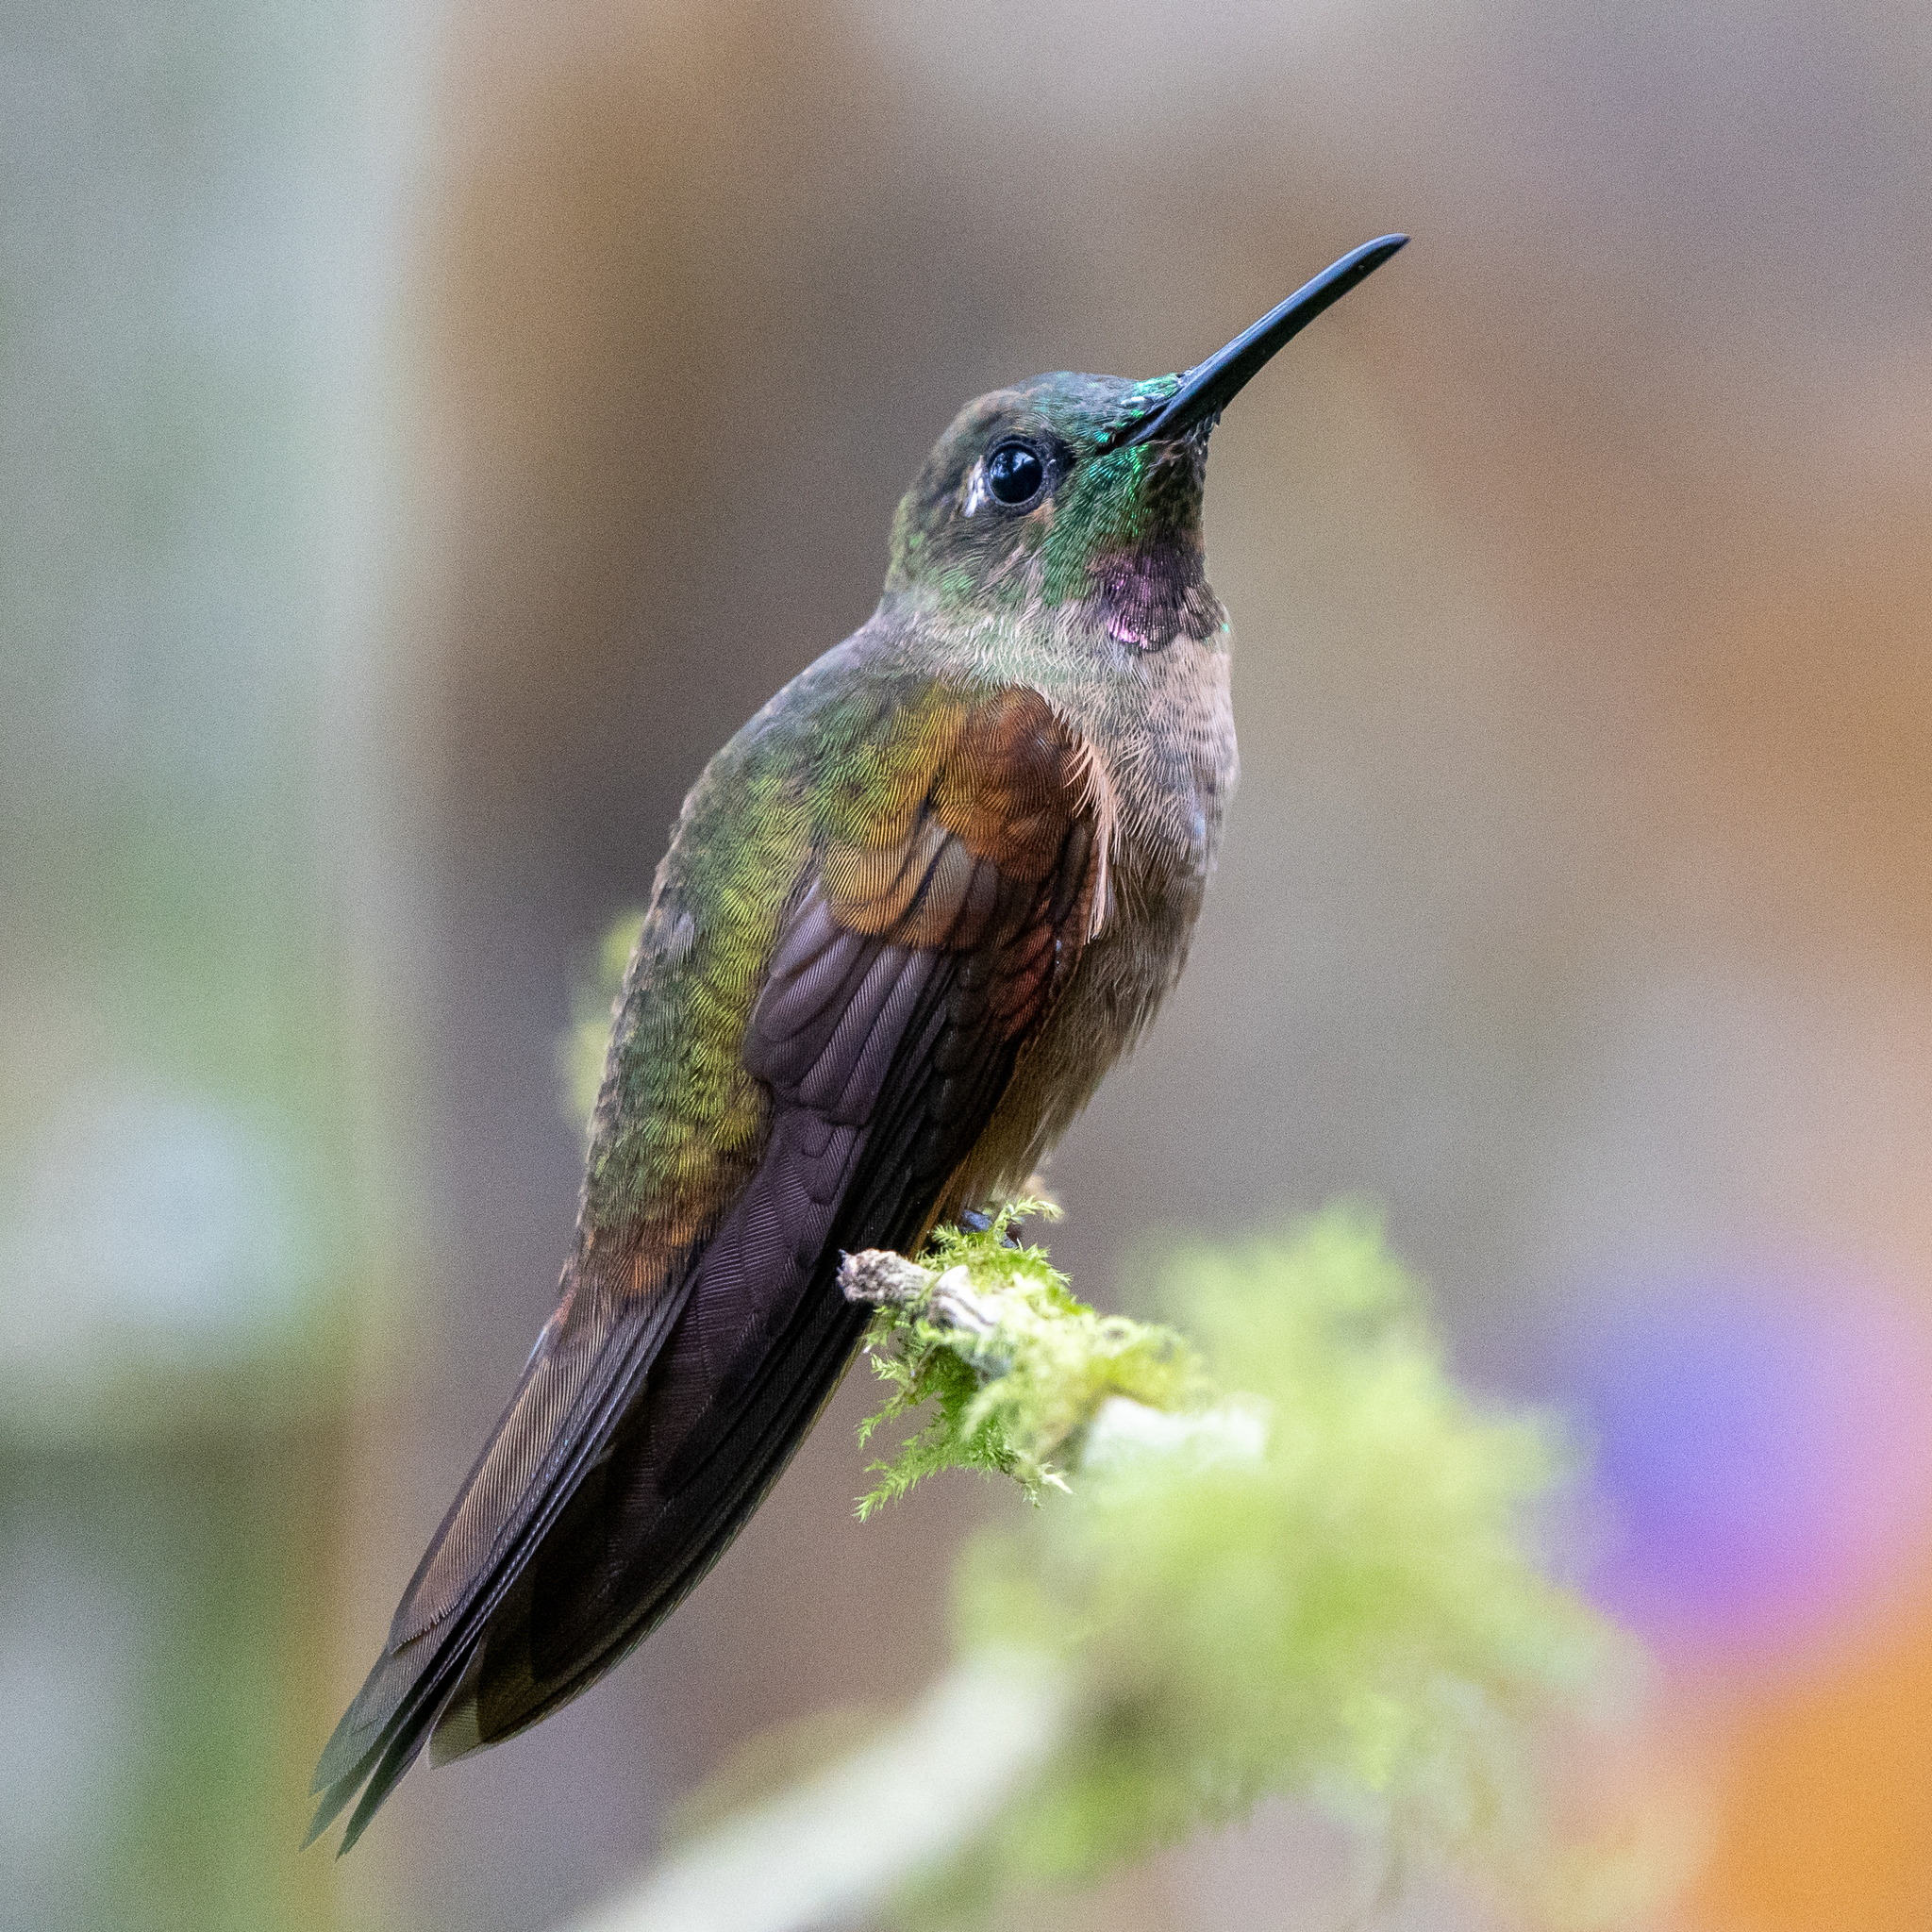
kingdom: Animalia
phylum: Chordata
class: Aves
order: Apodiformes
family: Trochilidae
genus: Heliodoxa
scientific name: Heliodoxa rubinoides
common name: Fawn-breasted brilliant
